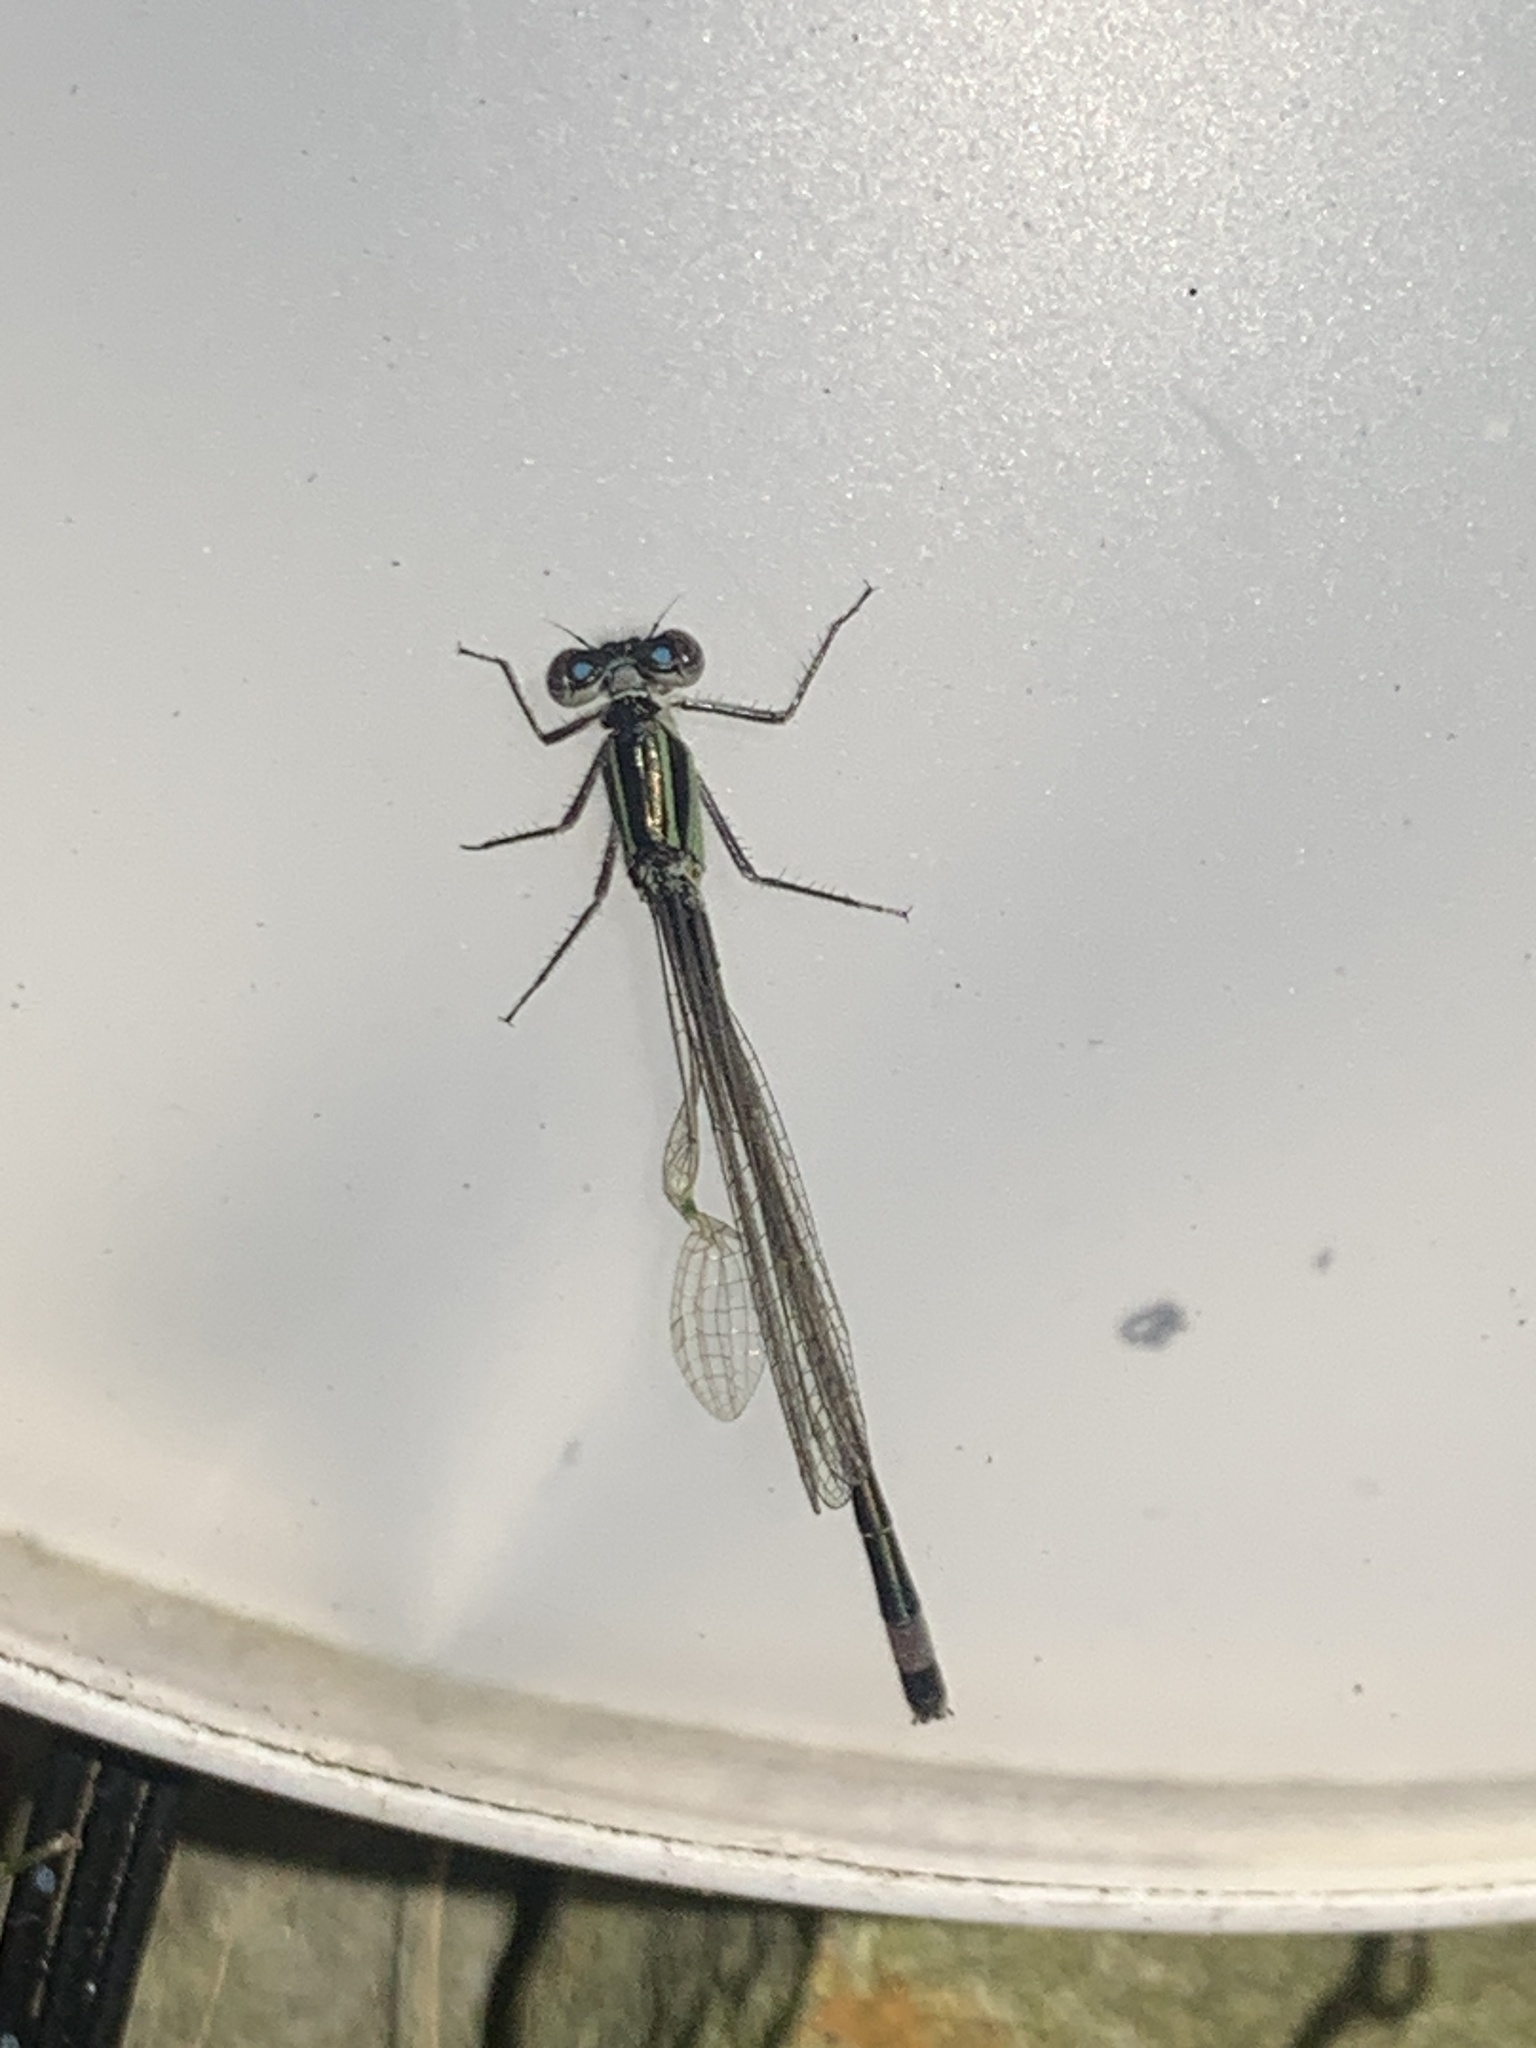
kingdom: Animalia
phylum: Arthropoda
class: Insecta
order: Odonata
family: Coenagrionidae
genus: Ischnura
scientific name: Ischnura elegans
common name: Blue-tailed damselfly
